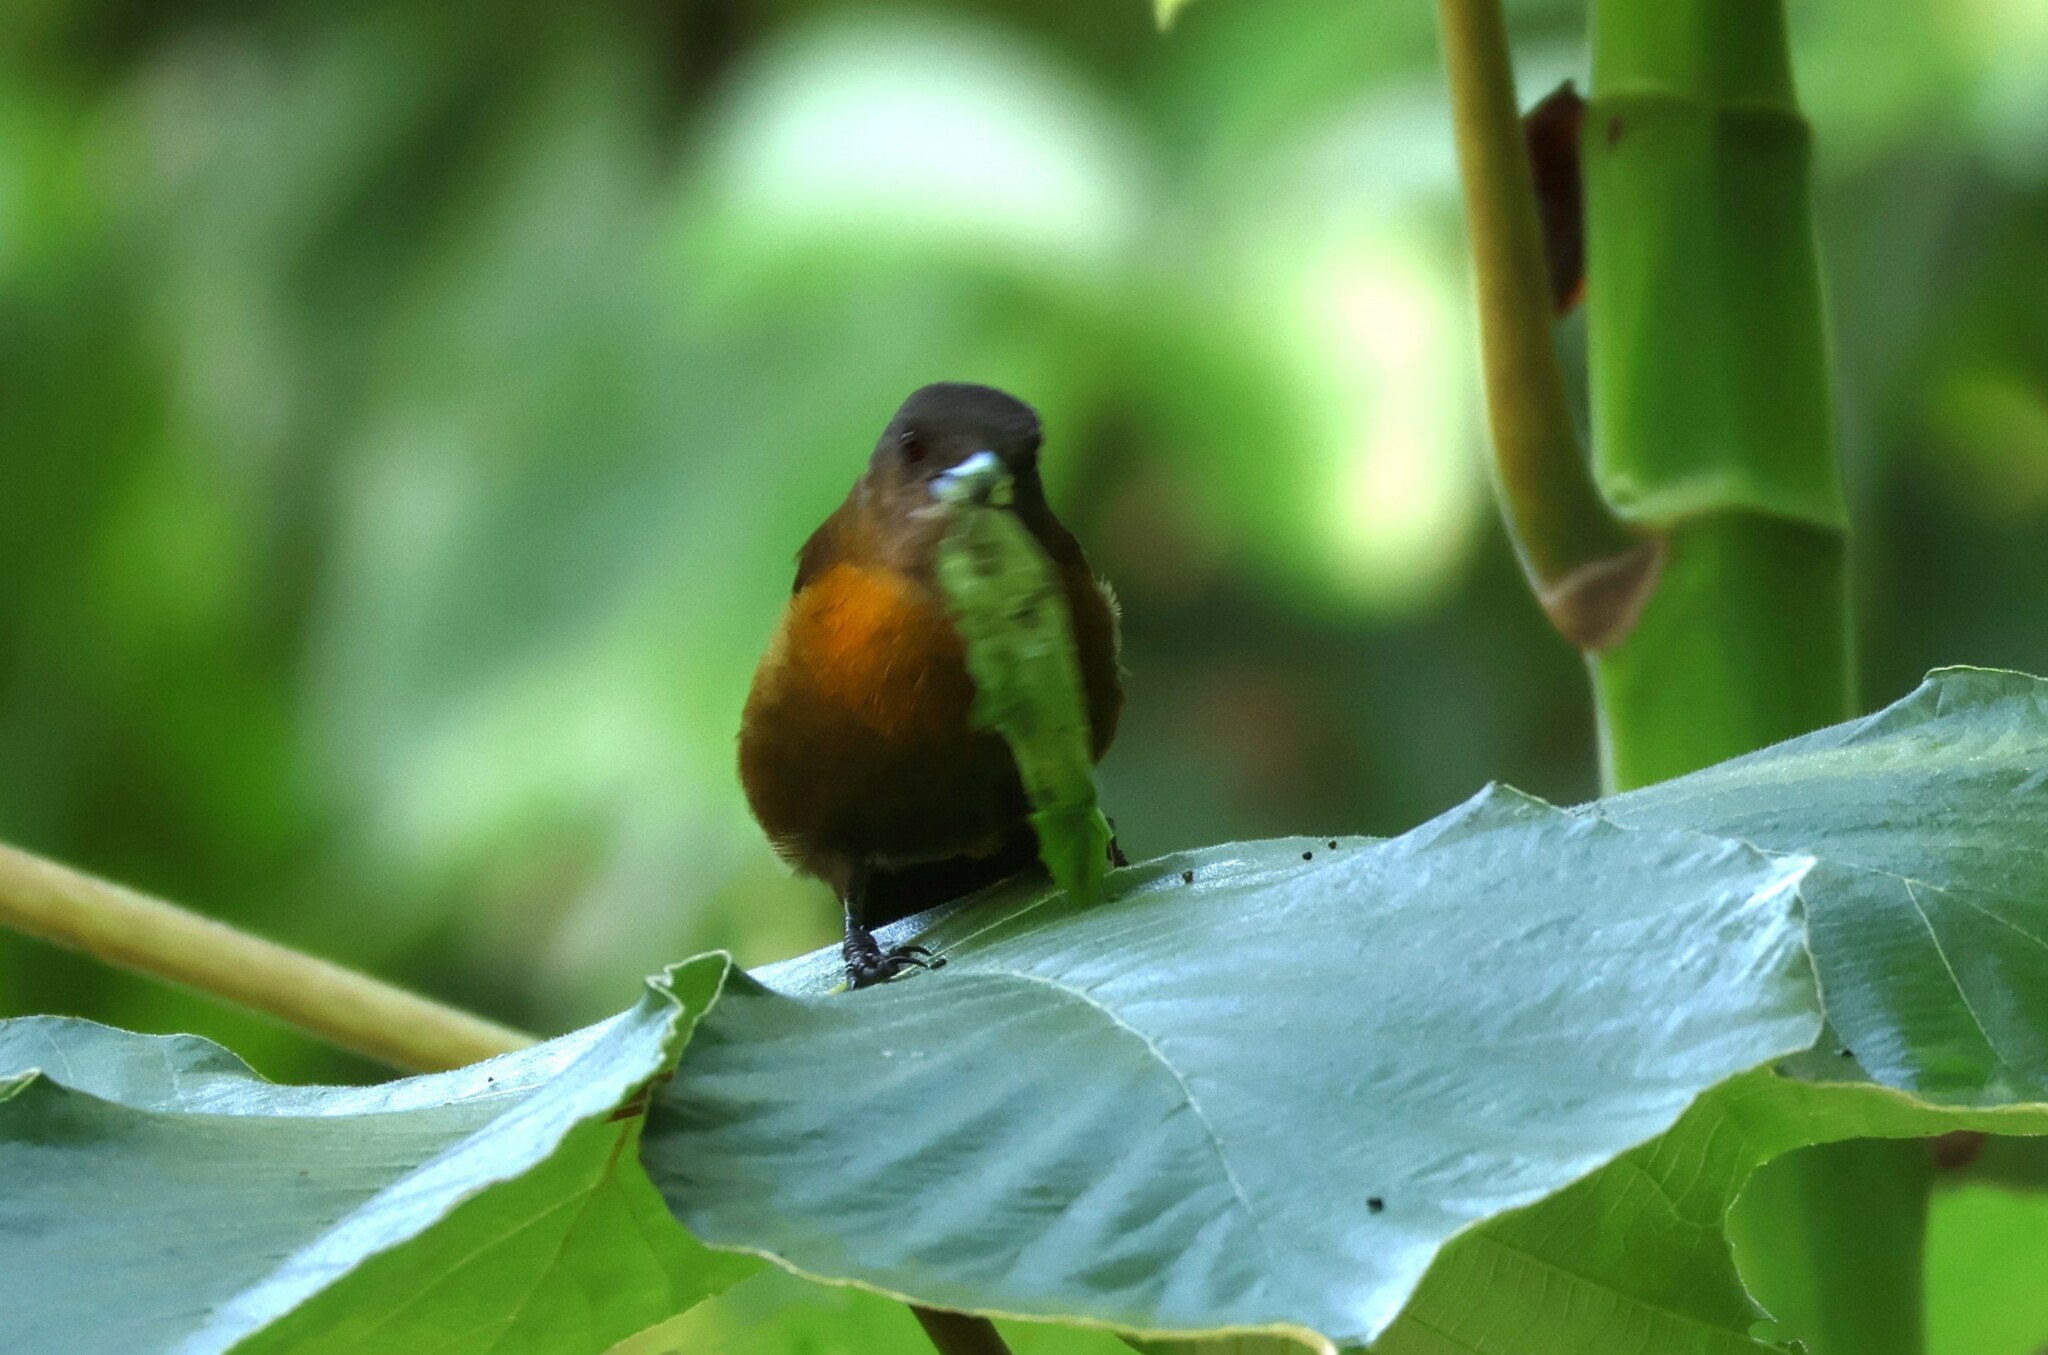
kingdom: Animalia
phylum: Chordata
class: Aves
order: Passeriformes
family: Thraupidae
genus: Ramphocelus
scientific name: Ramphocelus passerinii
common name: Passerini's tanager
